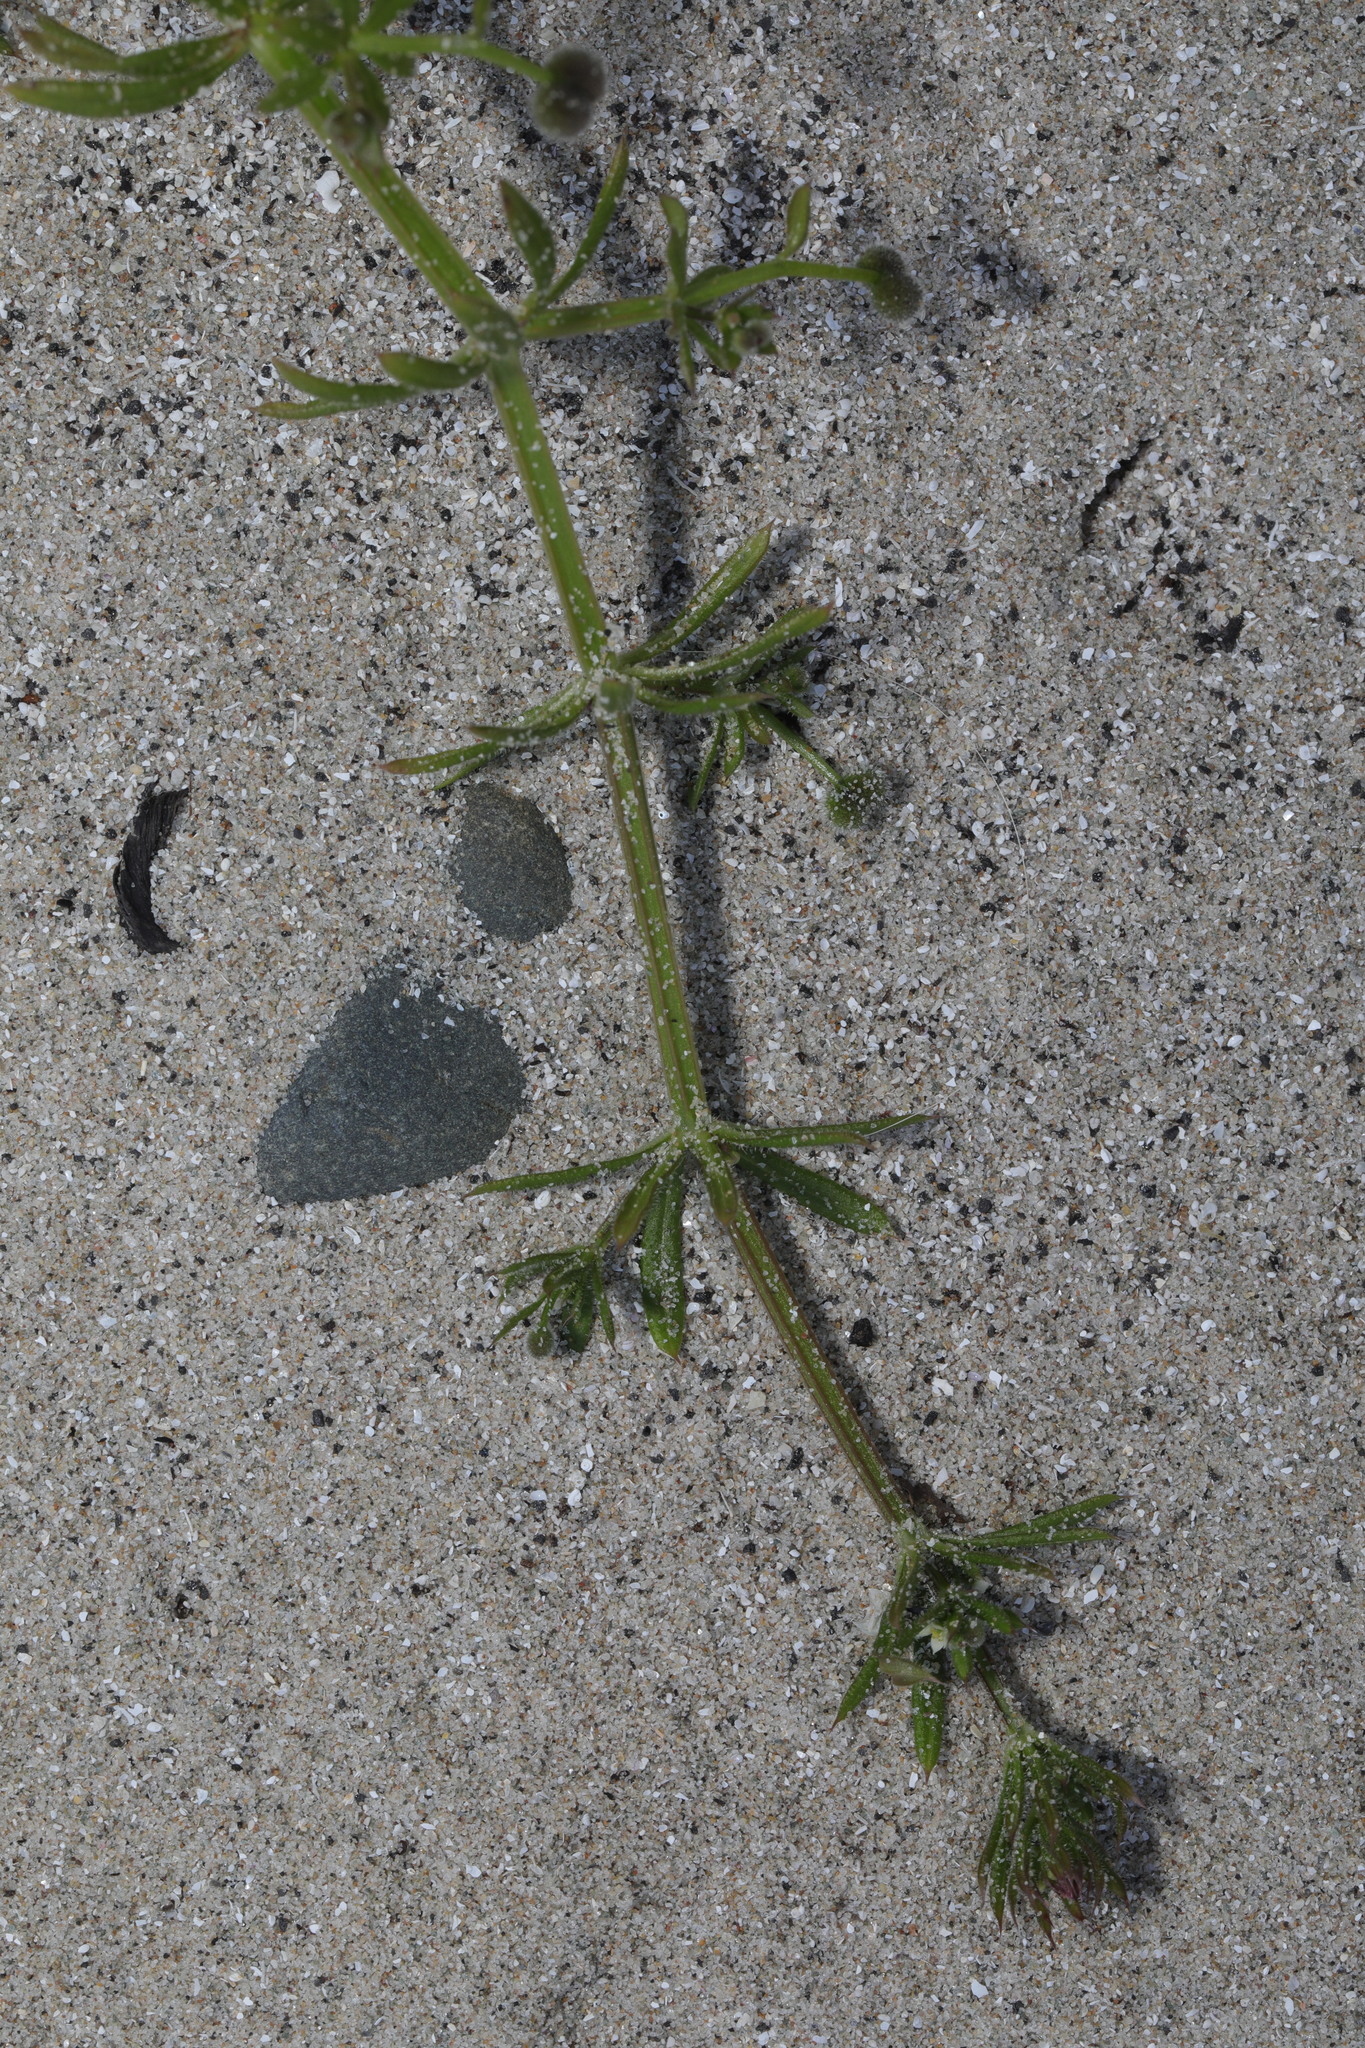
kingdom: Plantae
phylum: Tracheophyta
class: Magnoliopsida
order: Gentianales
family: Rubiaceae
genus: Galium
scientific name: Galium aparine
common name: Cleavers
